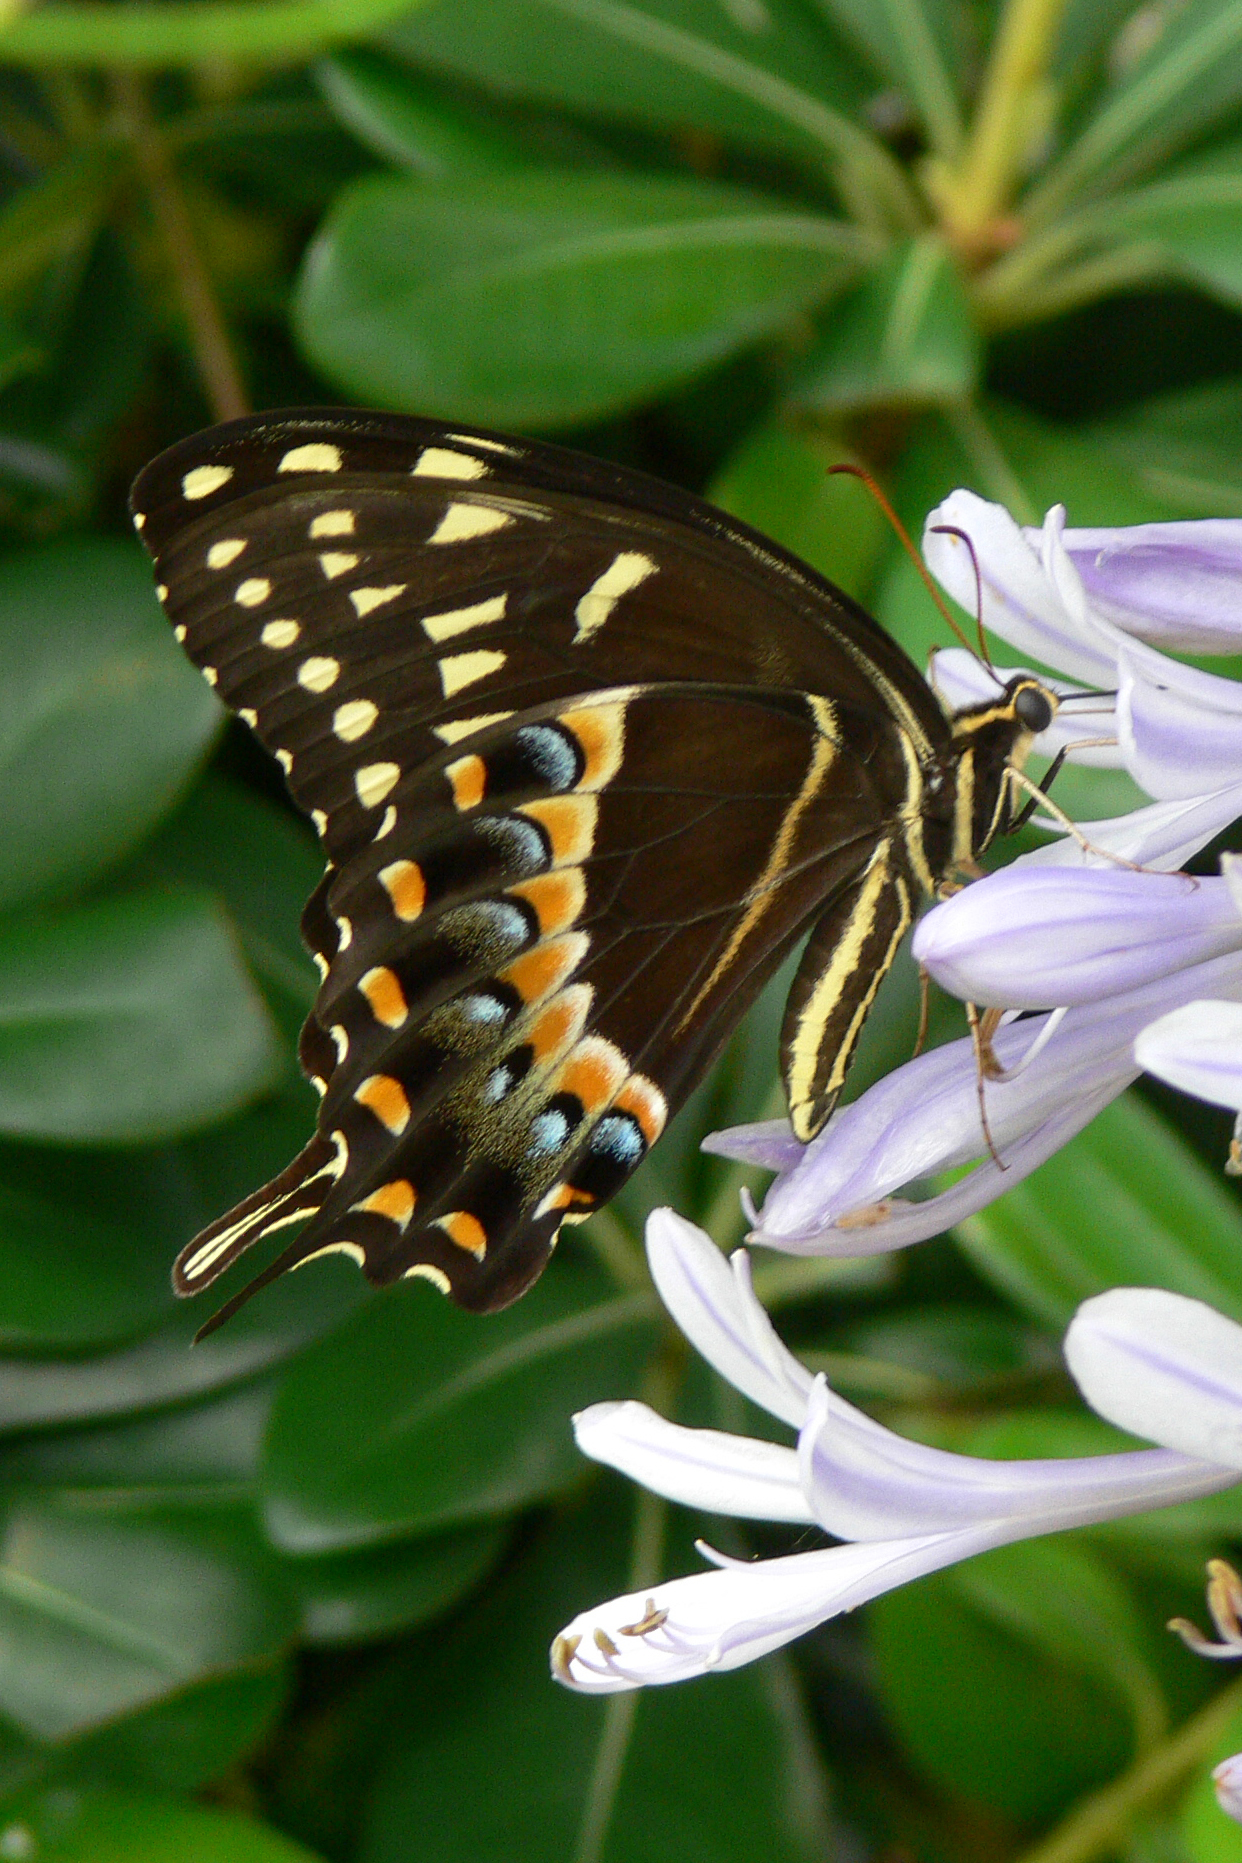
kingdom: Animalia
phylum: Arthropoda
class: Insecta
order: Lepidoptera
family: Papilionidae
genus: Papilio
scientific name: Papilio palamedes
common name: Palamedes swallowtail
